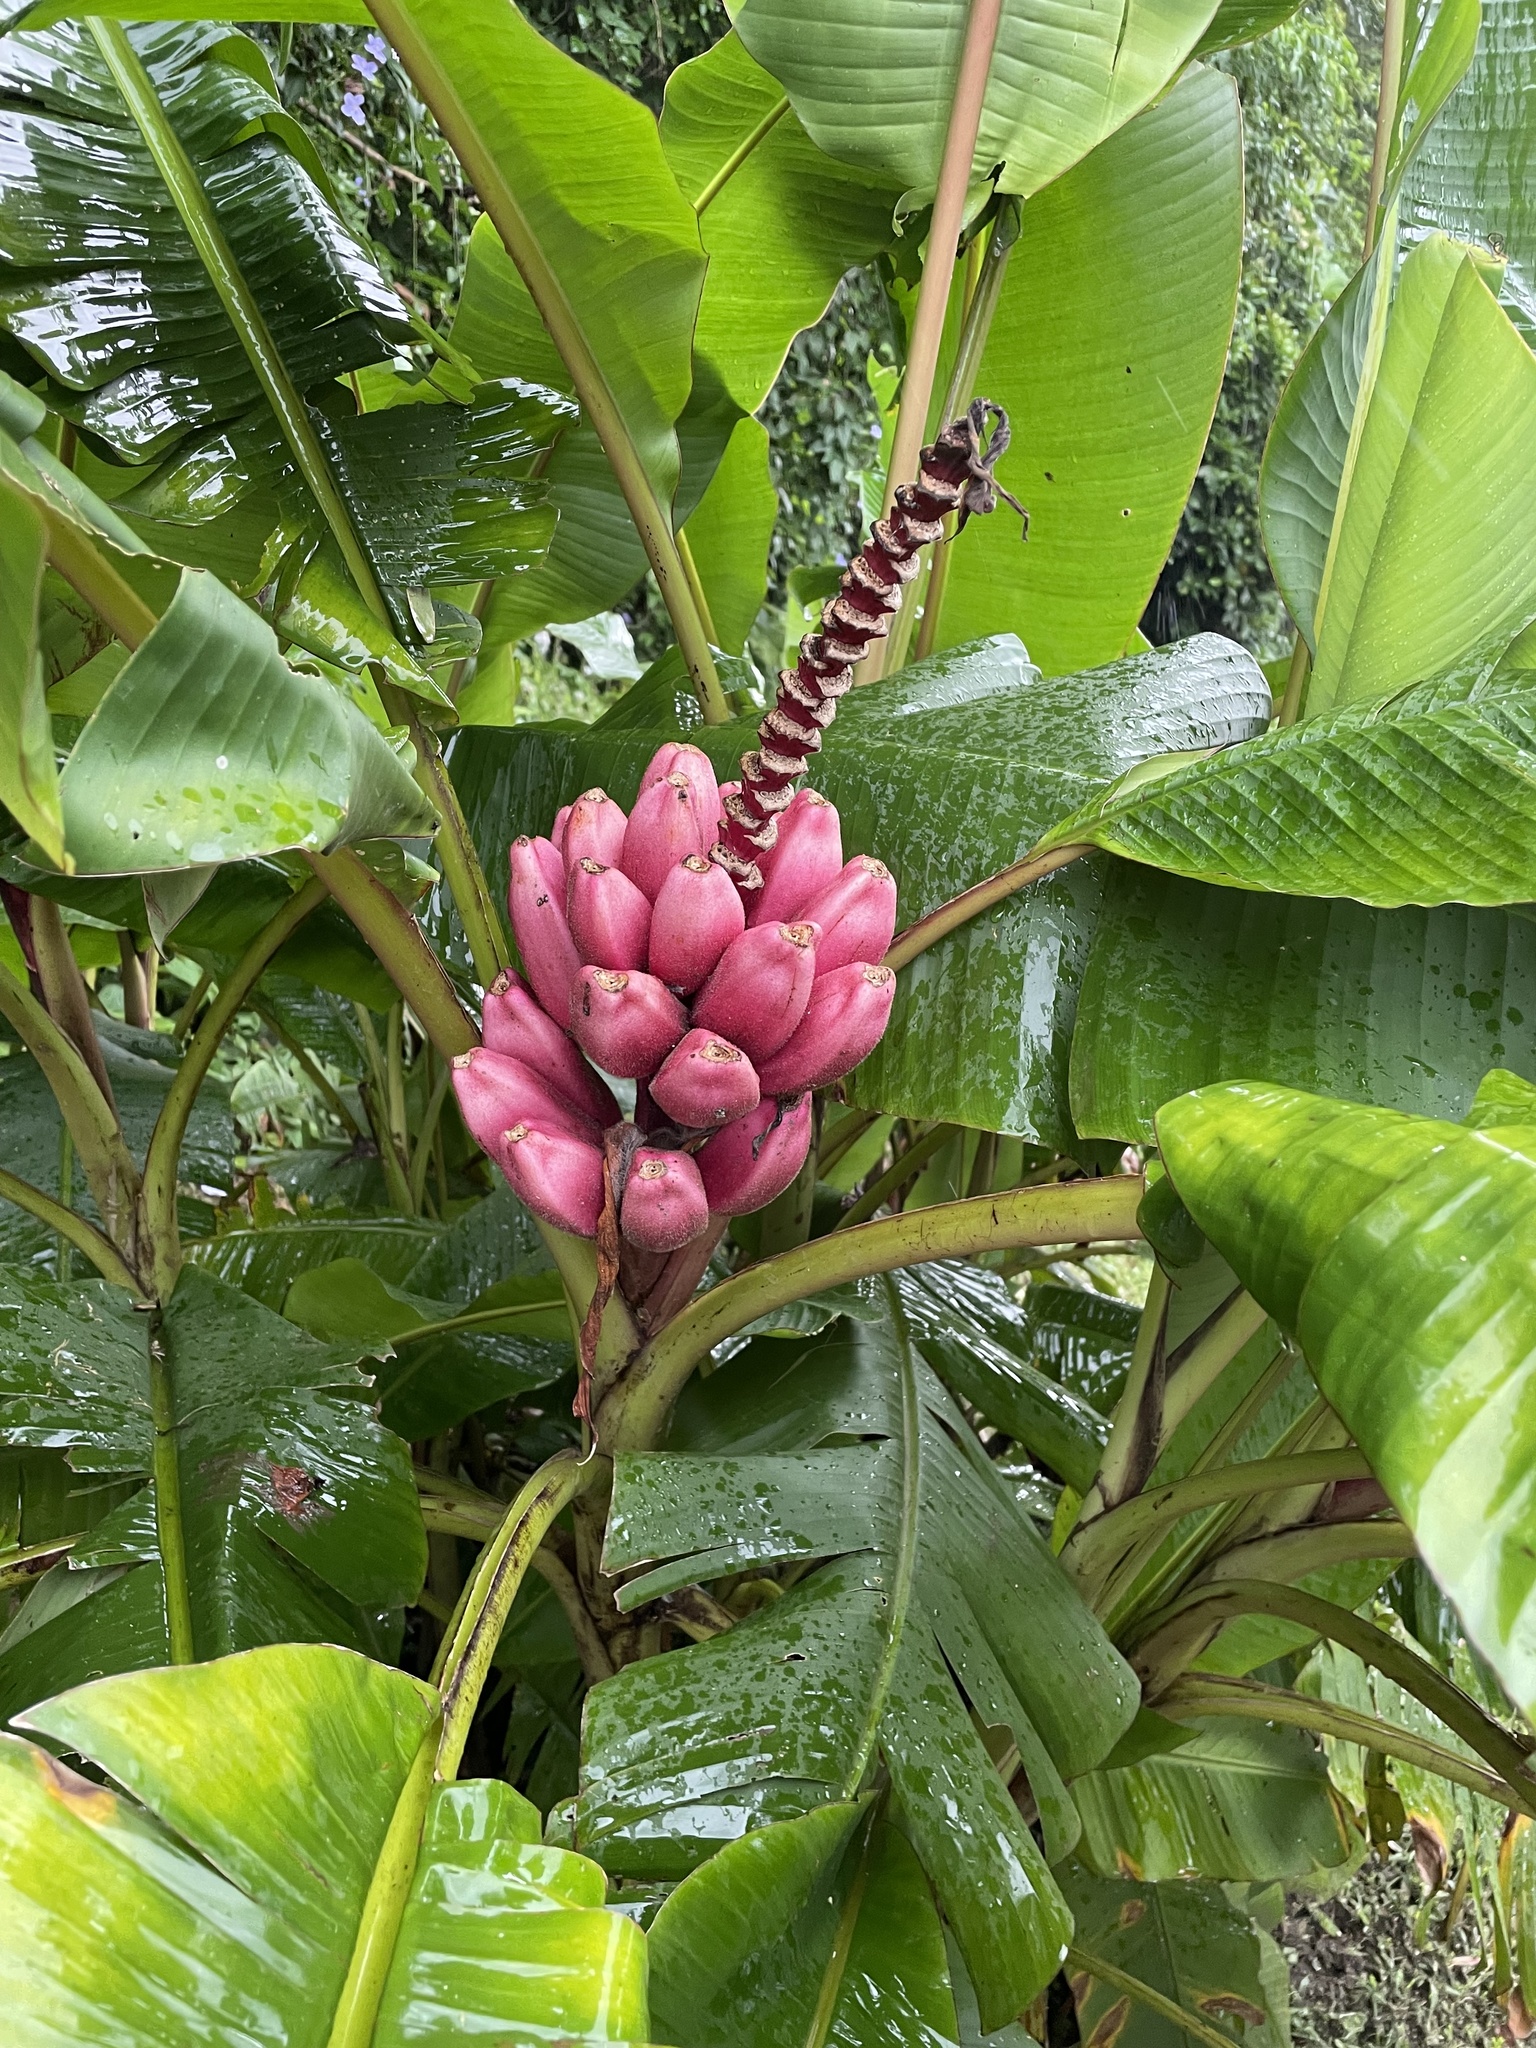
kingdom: Plantae
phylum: Tracheophyta
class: Liliopsida
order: Zingiberales
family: Musaceae
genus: Musa
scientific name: Musa velutina
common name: Pink velvet banana
